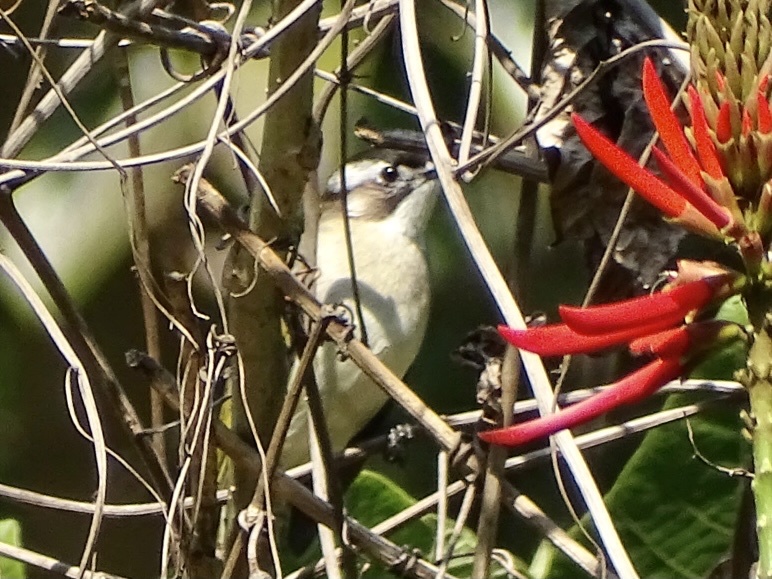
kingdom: Animalia
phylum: Chordata
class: Aves
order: Passeriformes
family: Pycnonotidae
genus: Pycnonotus
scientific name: Pycnonotus sinensis
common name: Light-vented bulbul
